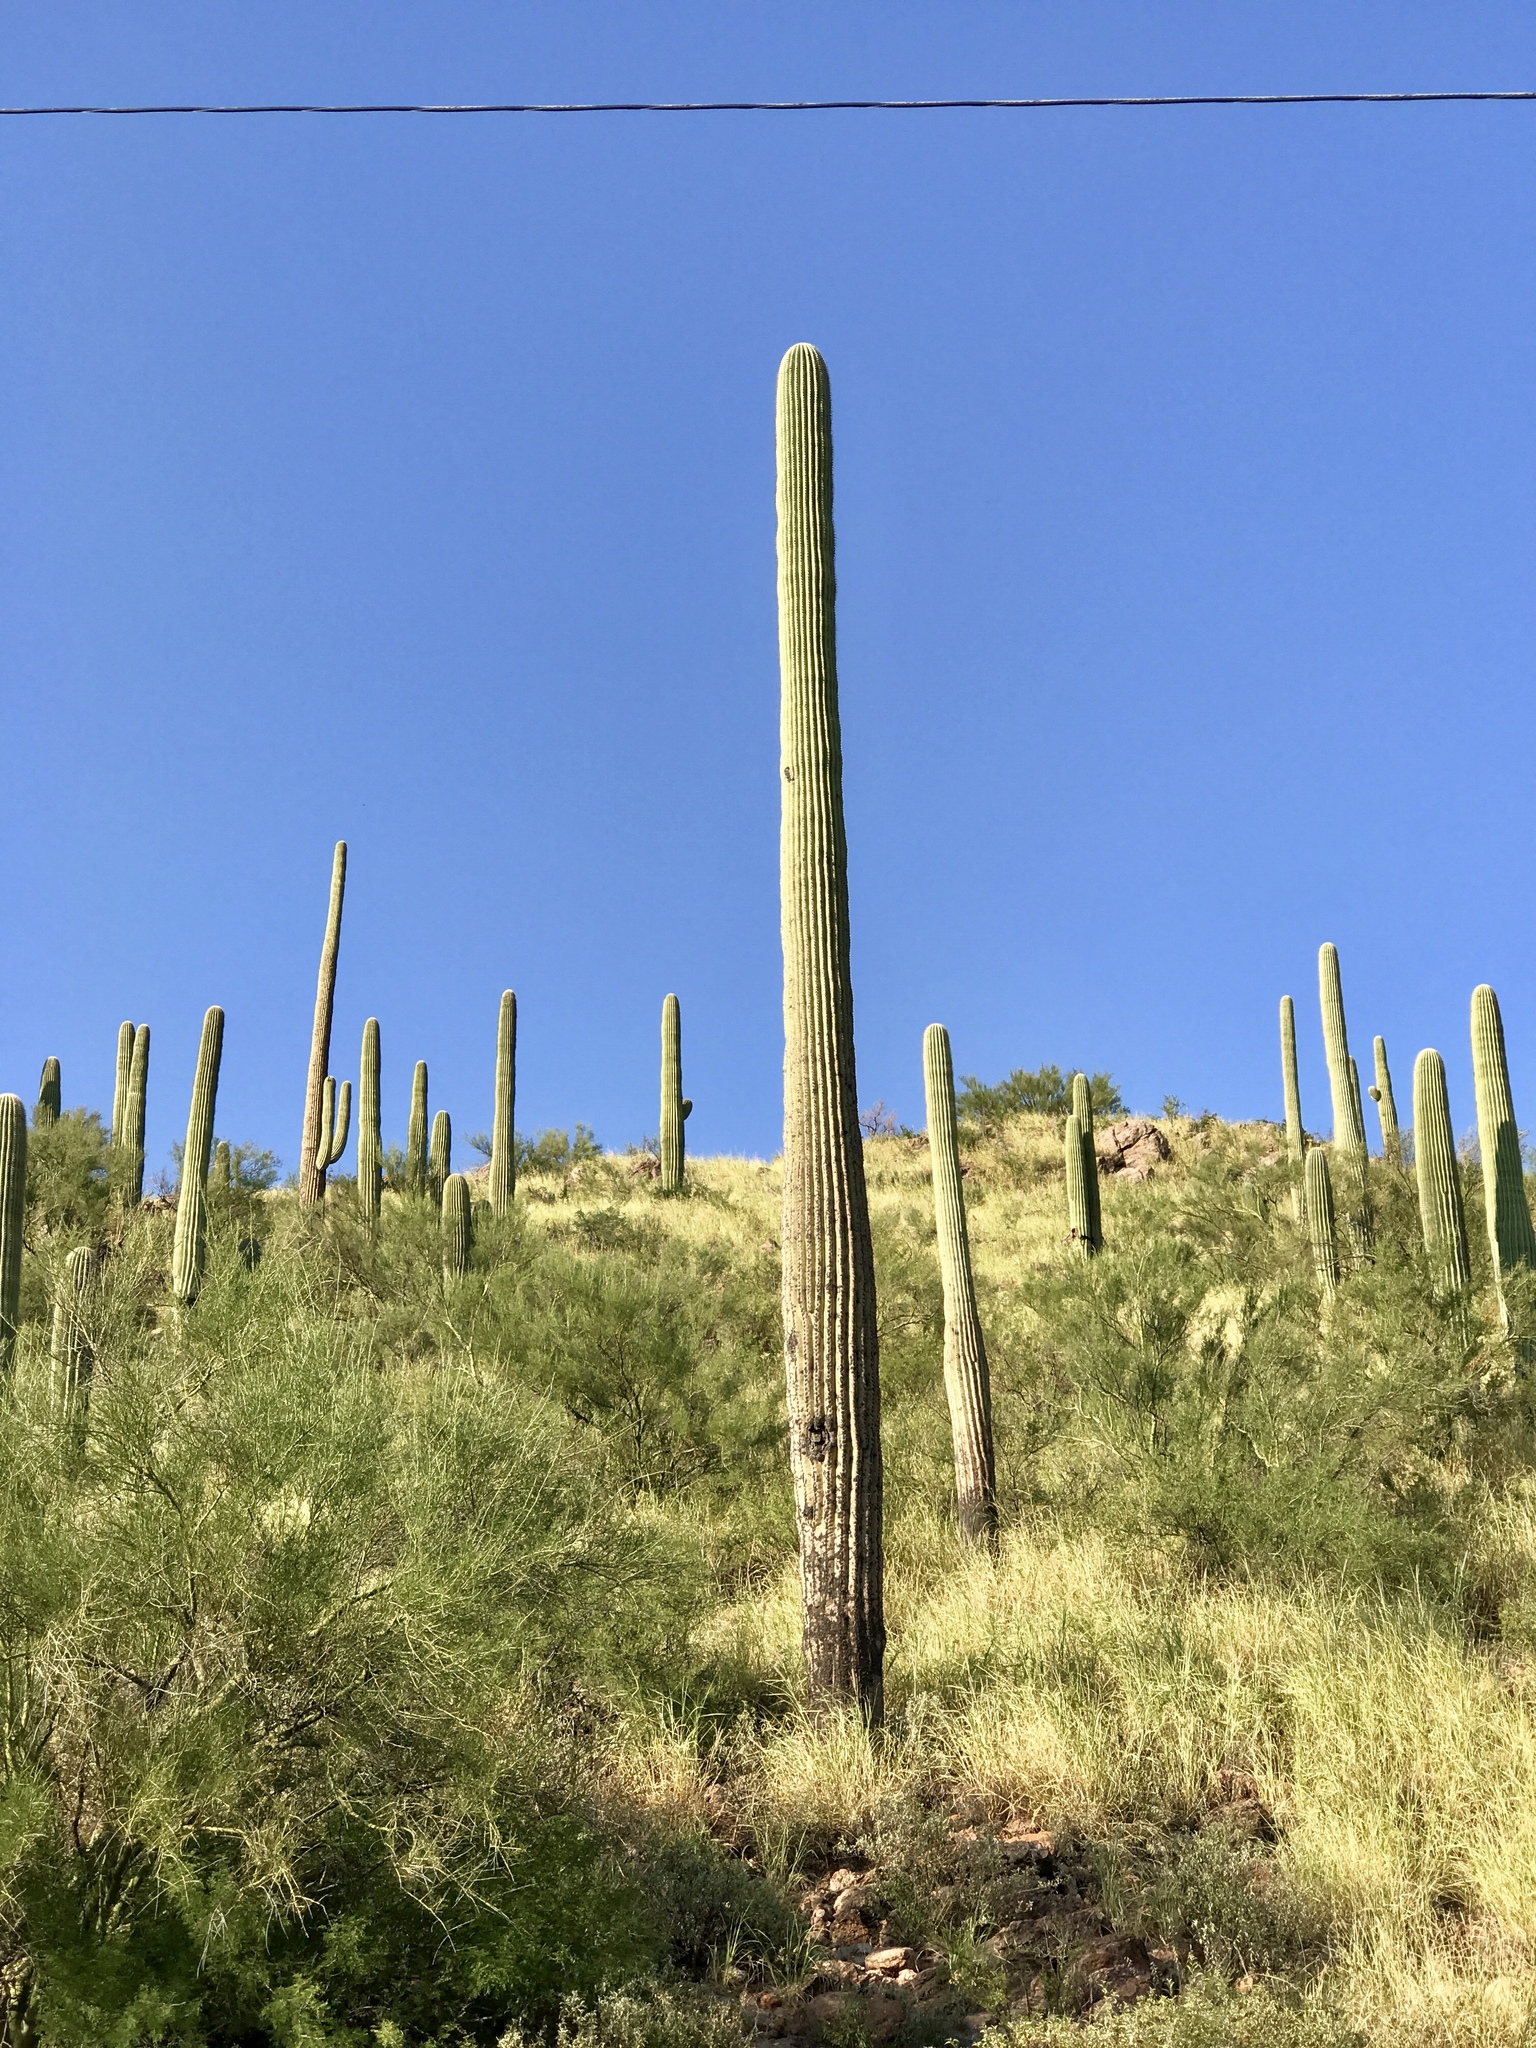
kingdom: Plantae
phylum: Tracheophyta
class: Magnoliopsida
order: Caryophyllales
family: Cactaceae
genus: Carnegiea
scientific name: Carnegiea gigantea
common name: Saguaro
